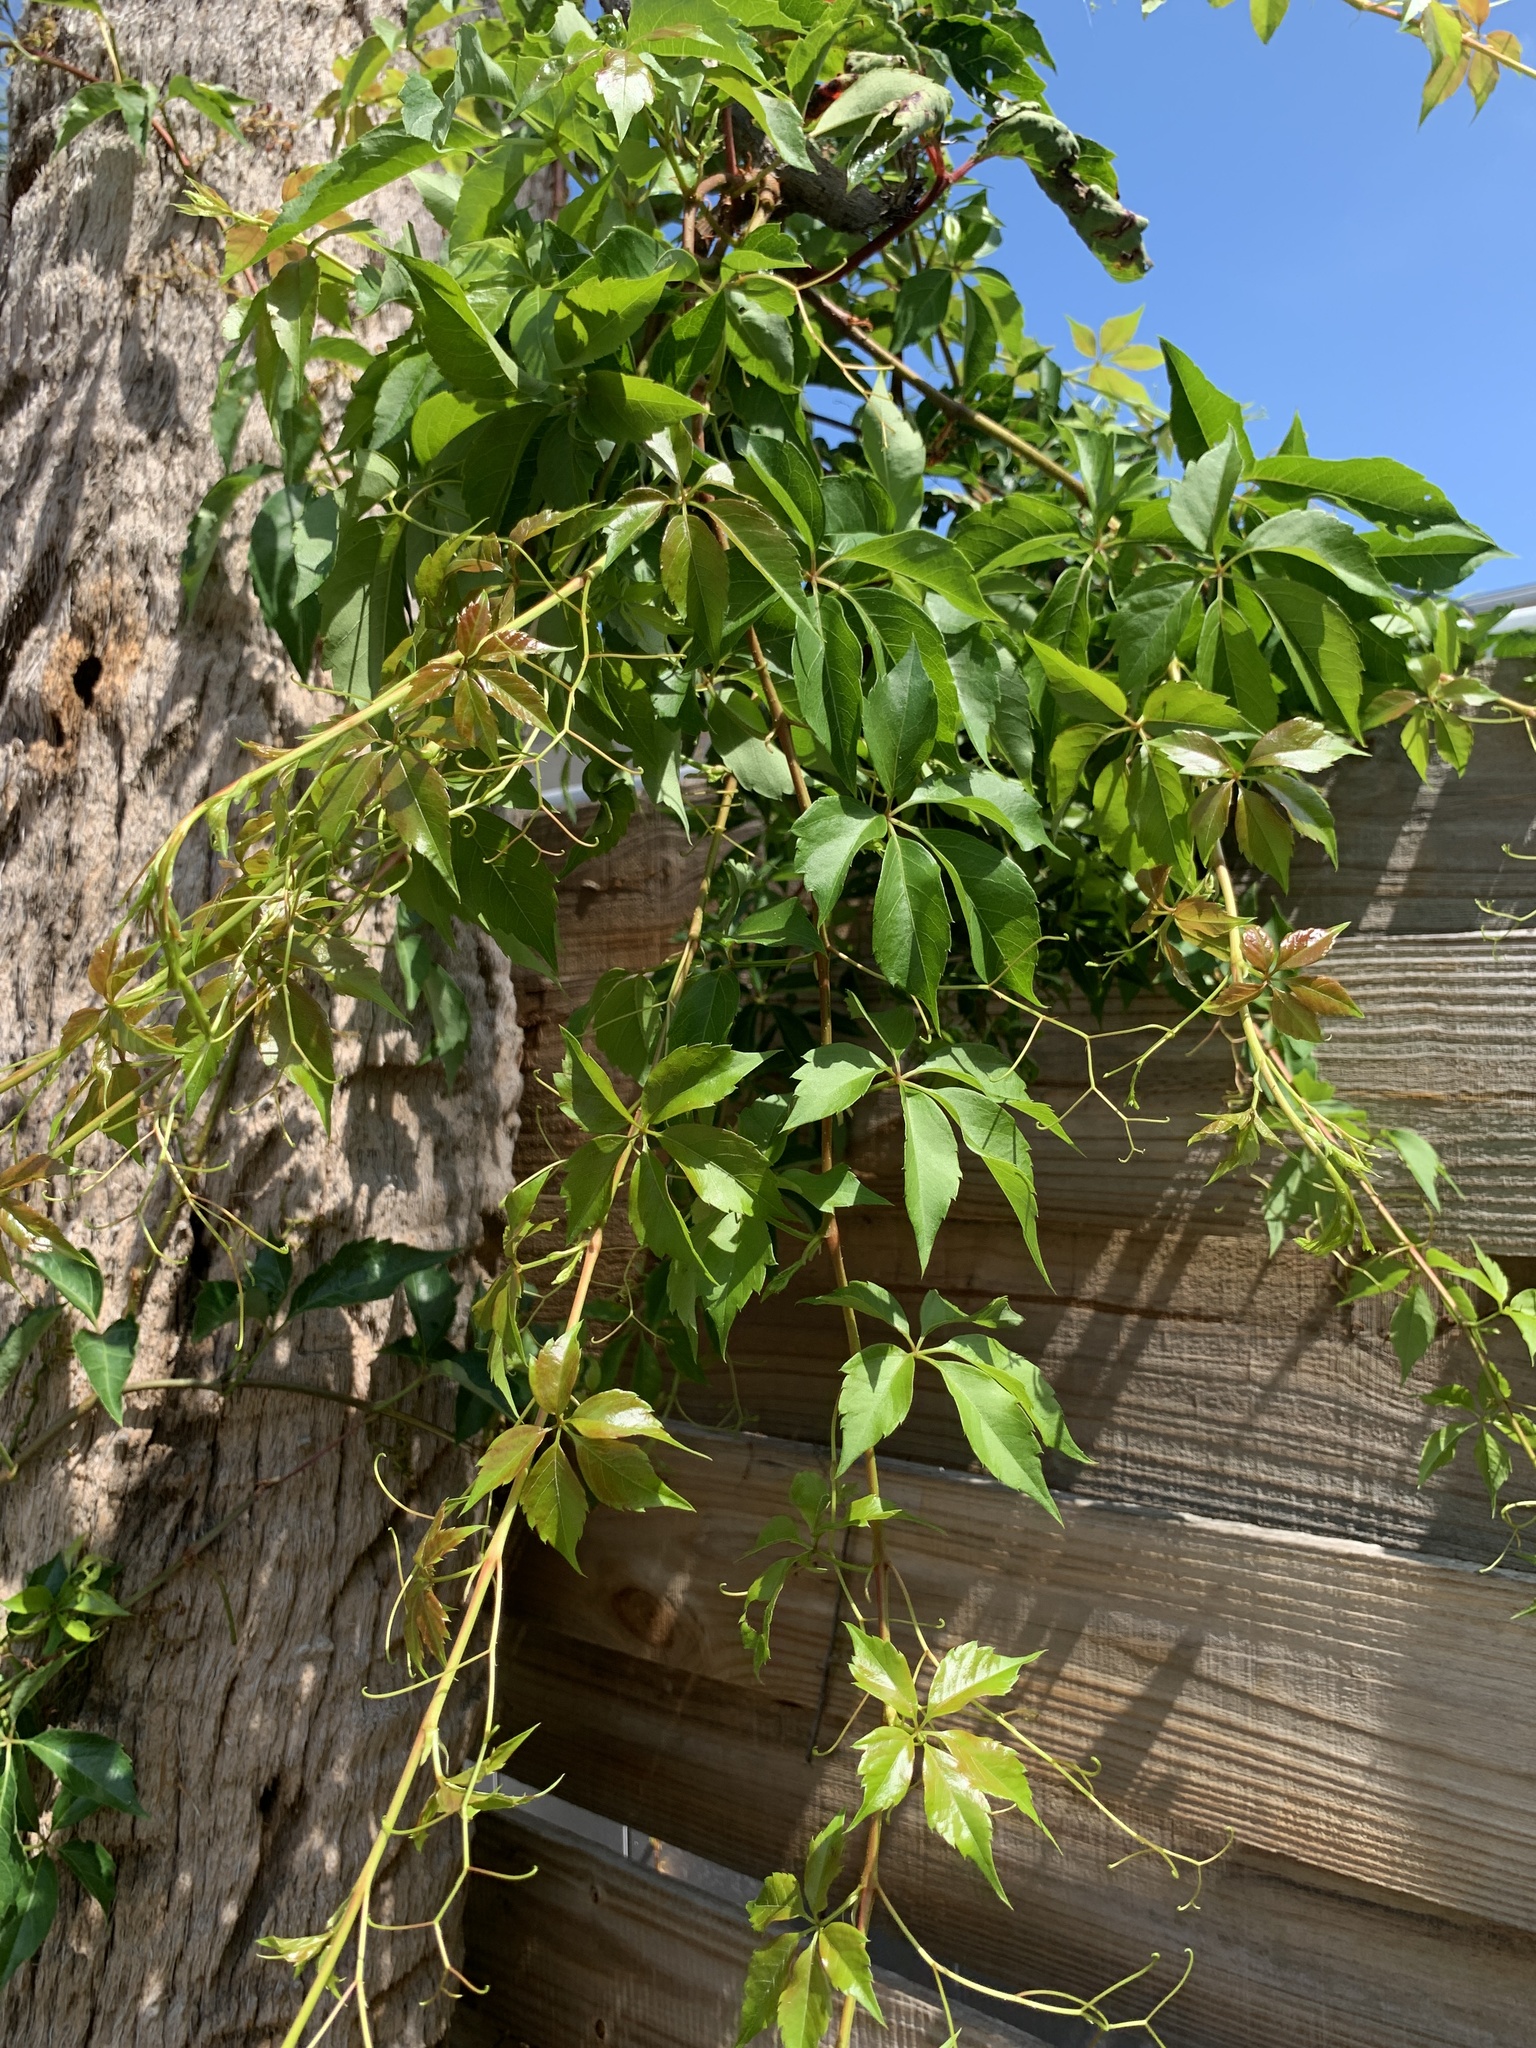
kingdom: Plantae
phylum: Tracheophyta
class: Magnoliopsida
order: Vitales
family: Vitaceae
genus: Parthenocissus
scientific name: Parthenocissus quinquefolia
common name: Virginia-creeper
